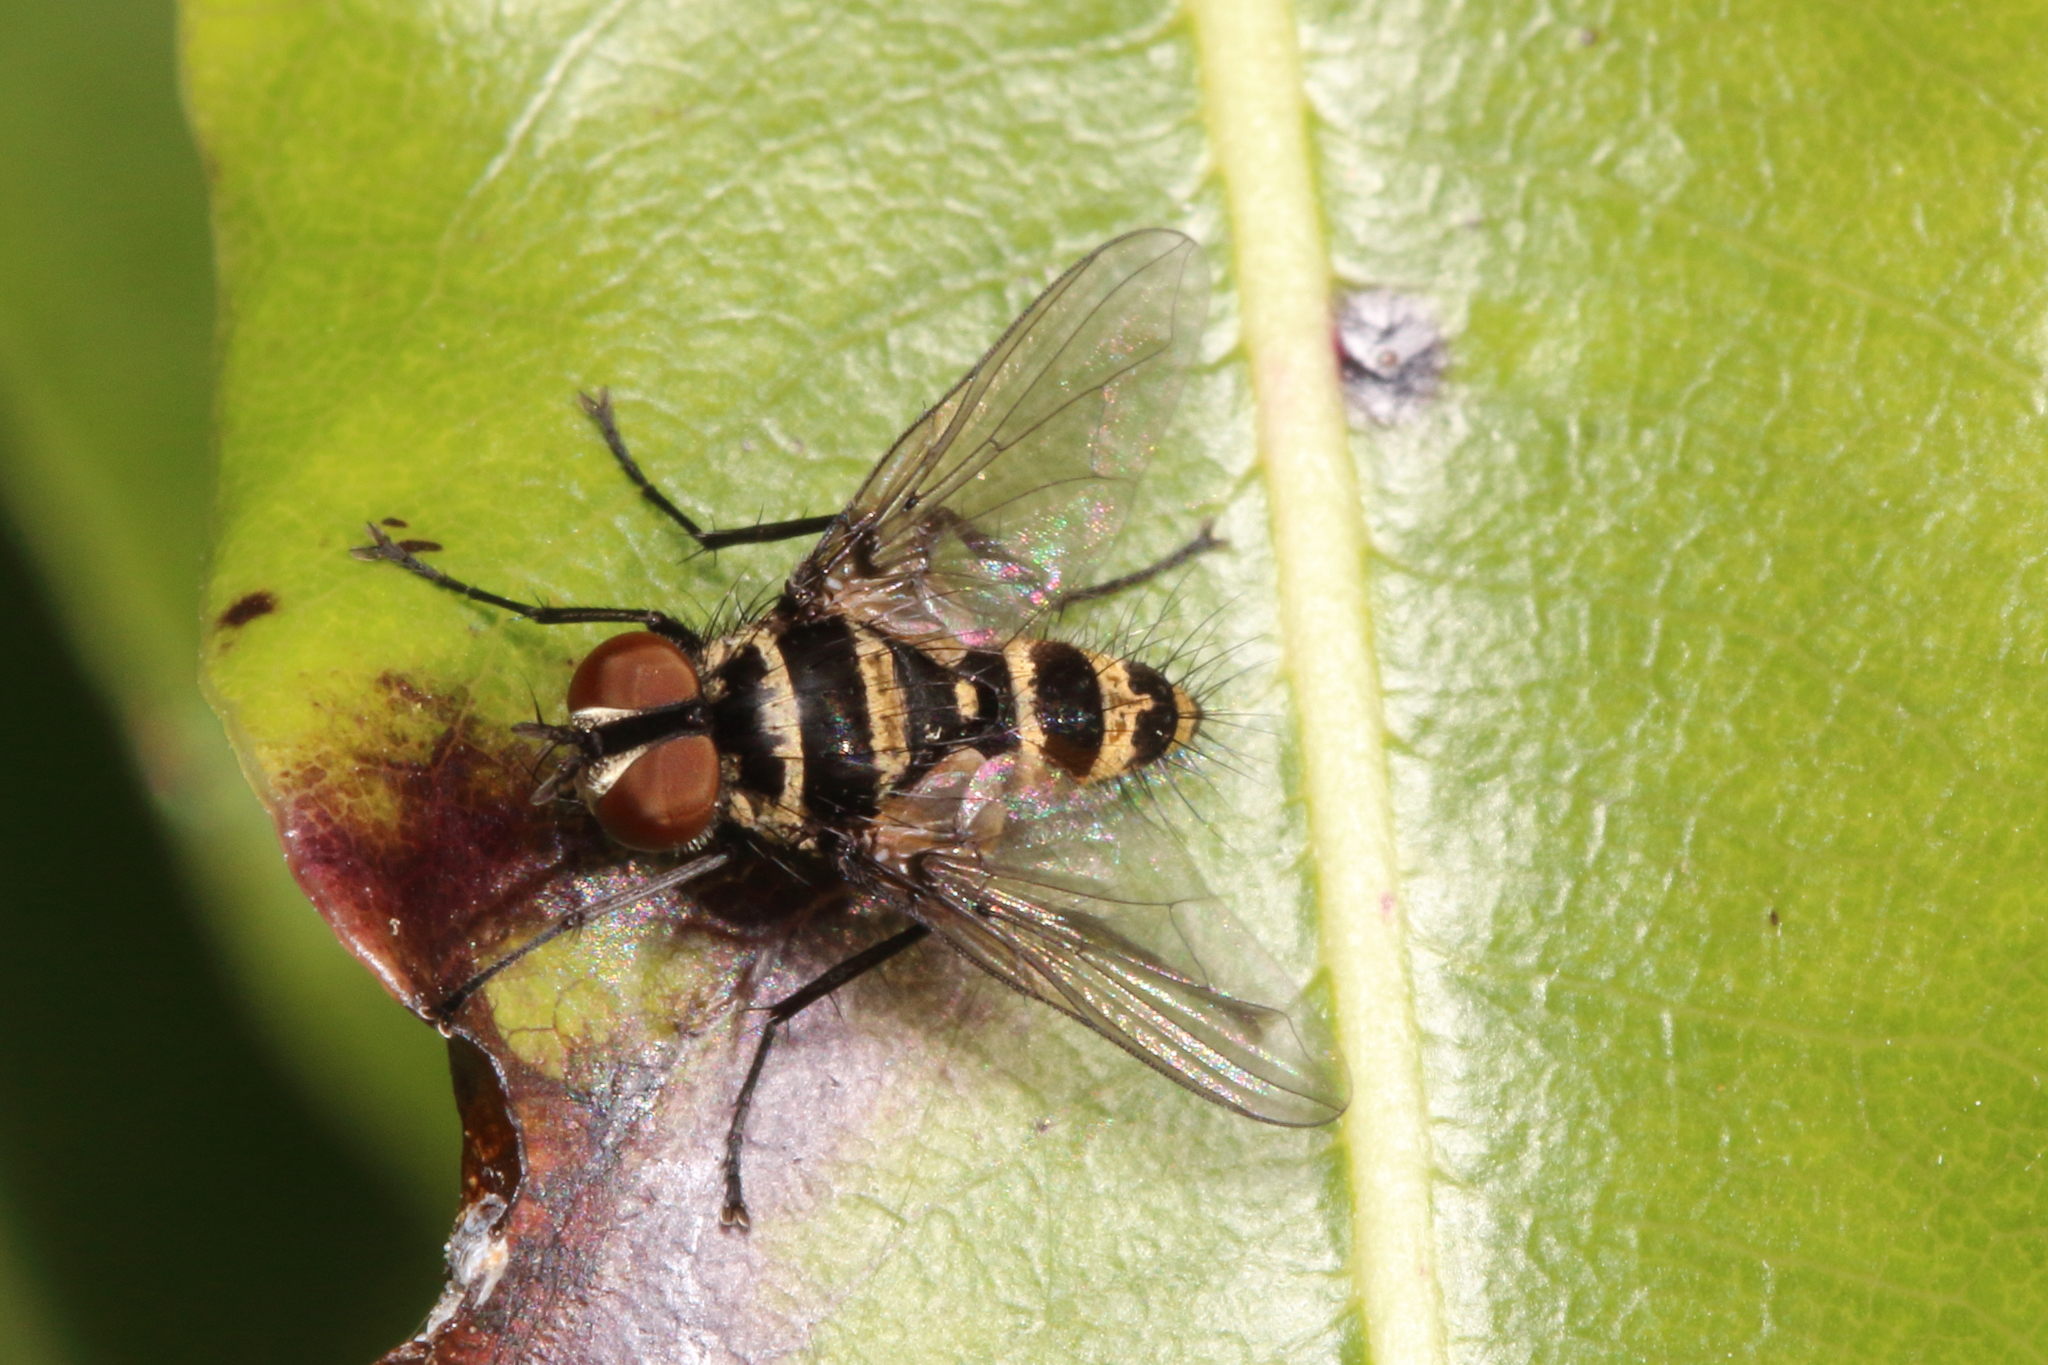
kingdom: Animalia
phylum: Arthropoda
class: Insecta
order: Diptera
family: Tachinidae
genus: Trigonospila
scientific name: Trigonospila brevifacies
